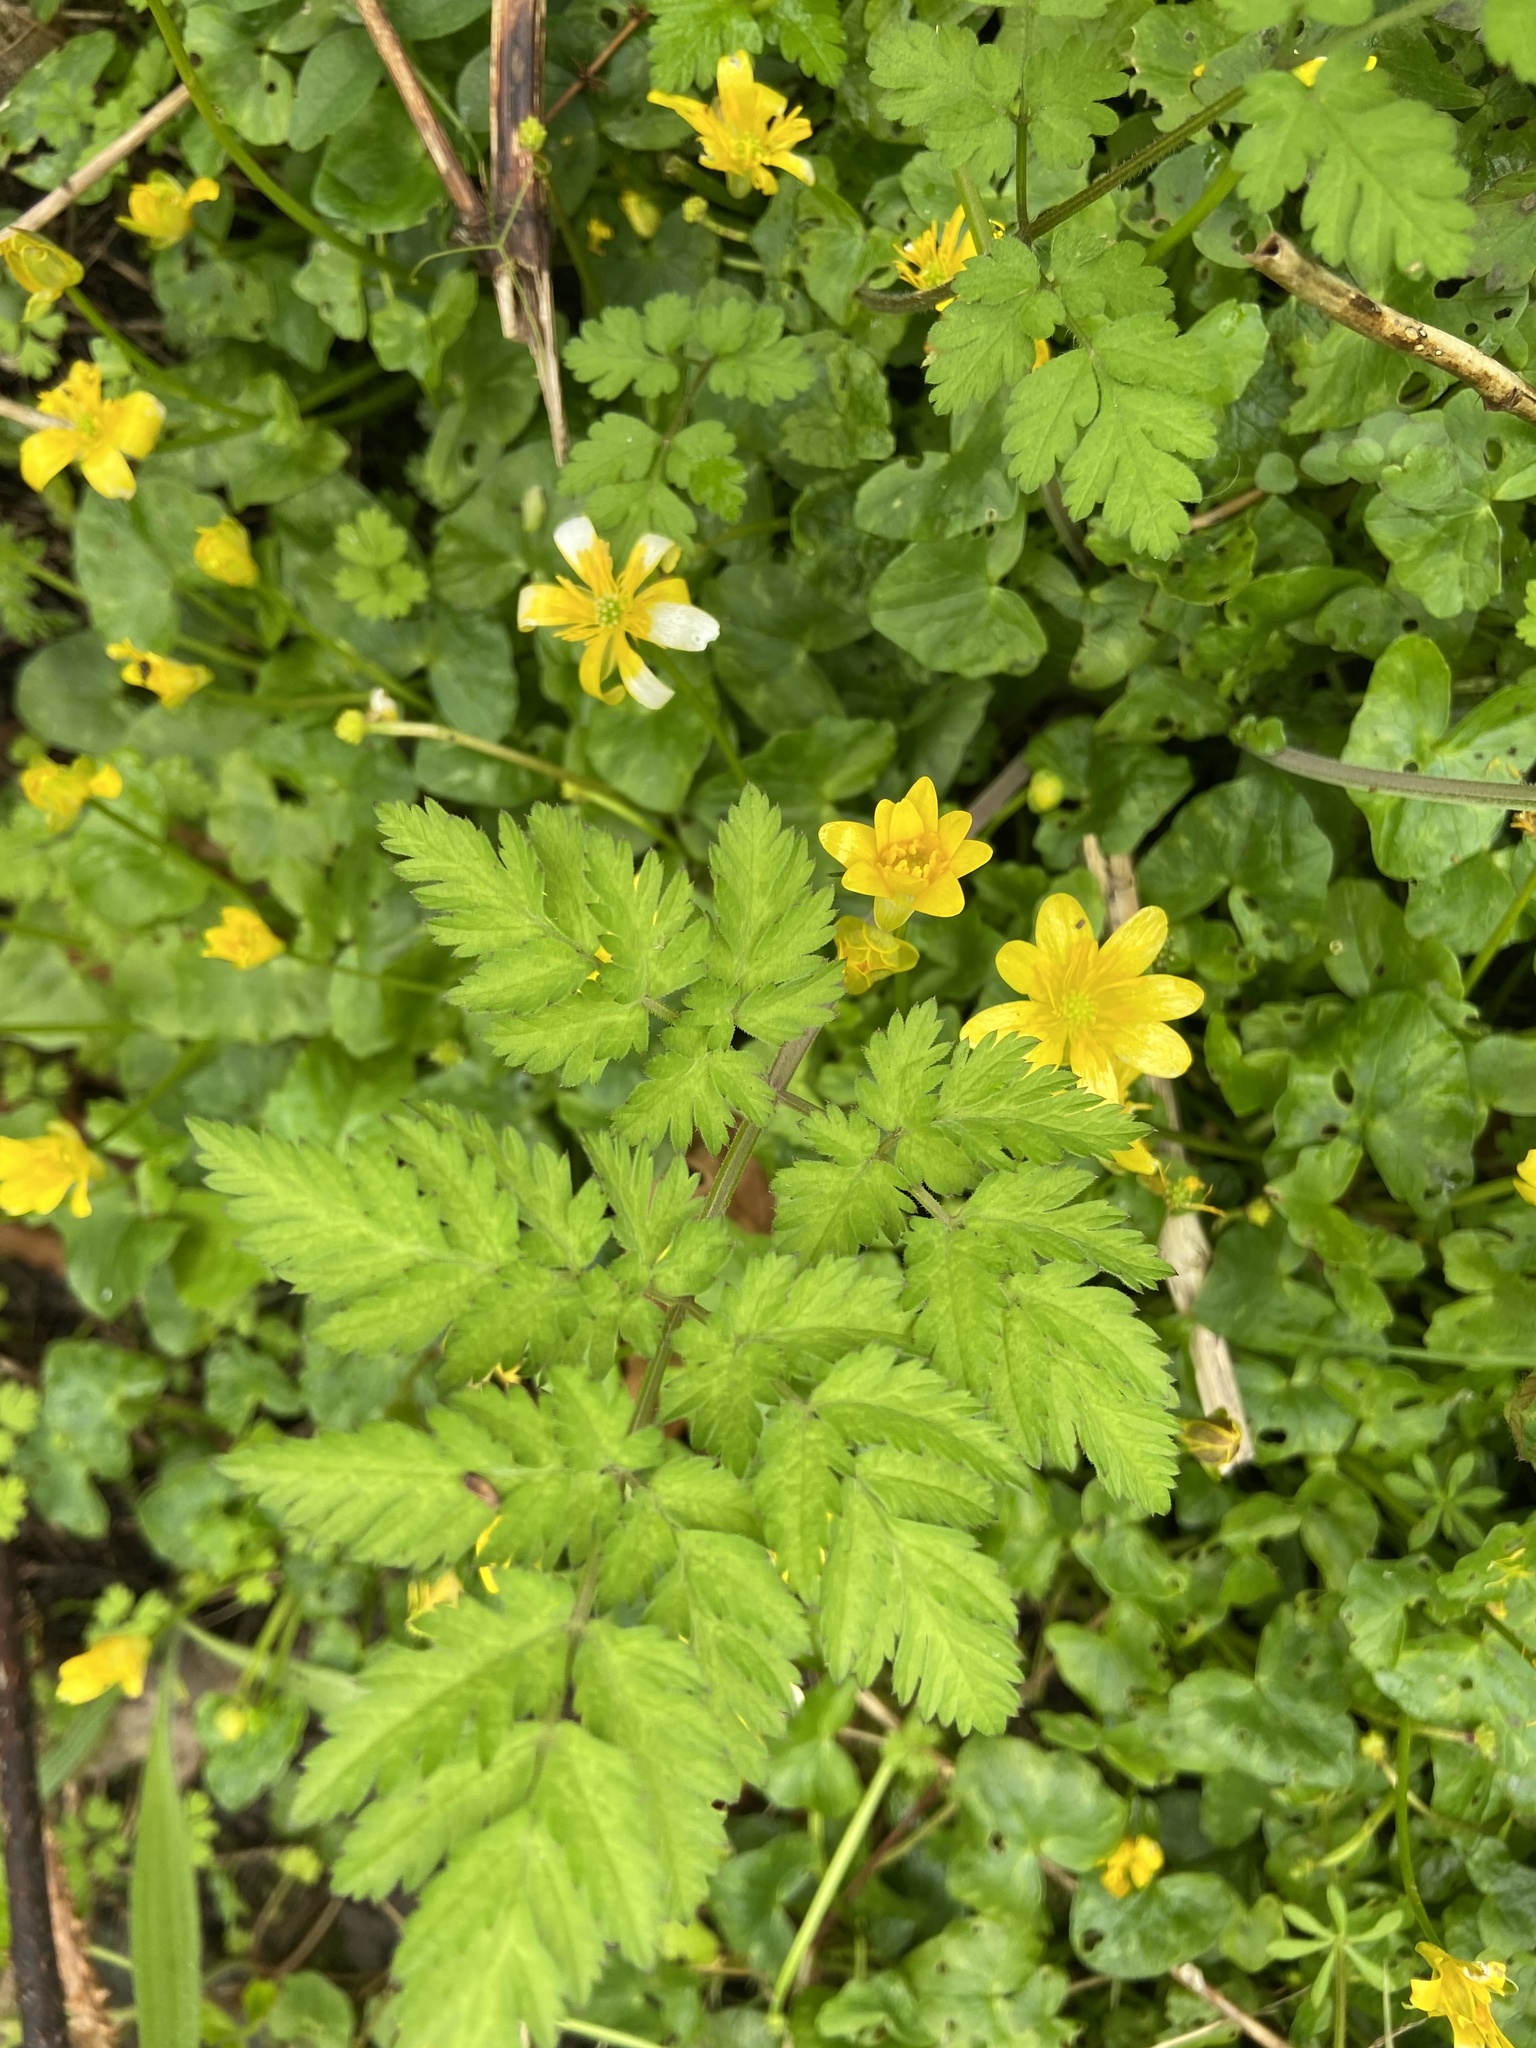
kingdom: Plantae
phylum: Tracheophyta
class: Magnoliopsida
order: Ranunculales
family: Ranunculaceae
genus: Ficaria
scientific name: Ficaria verna
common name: Lesser celandine
